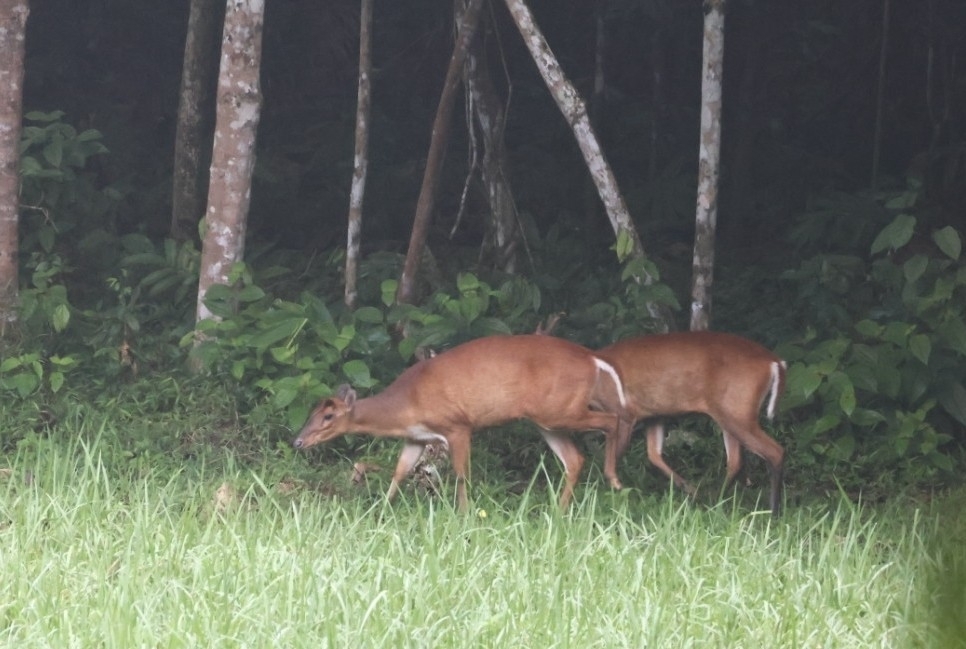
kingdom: Animalia
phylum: Chordata
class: Mammalia
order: Artiodactyla
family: Cervidae
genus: Muntiacus
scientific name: Muntiacus muntjak
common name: Indian muntjac
